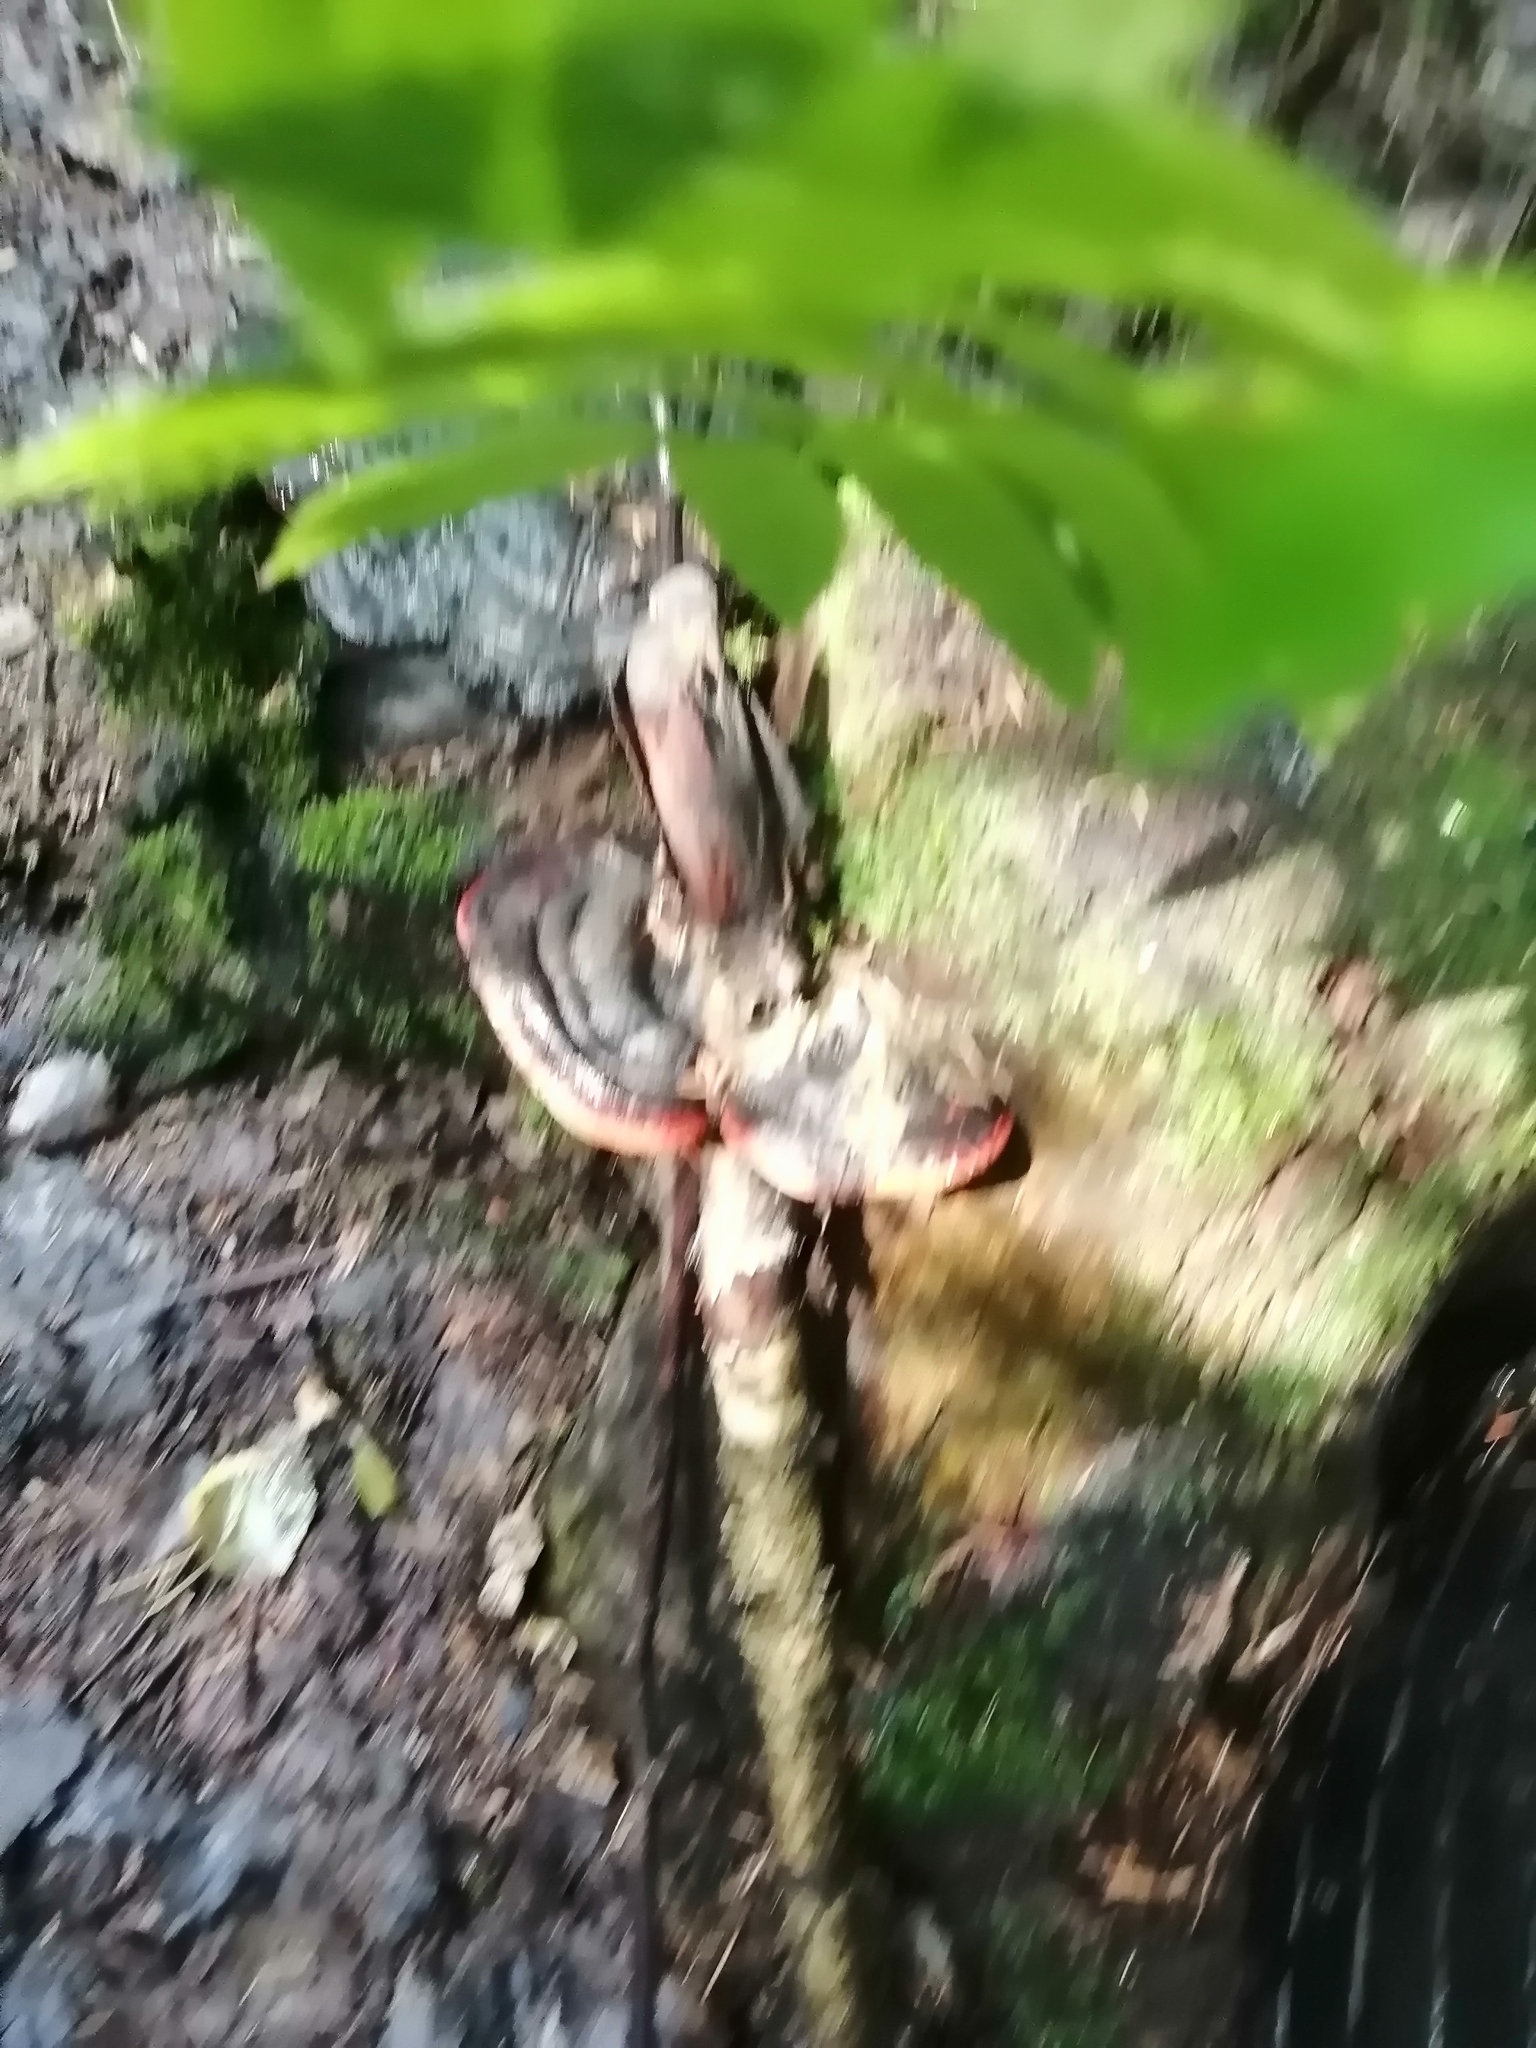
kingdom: Fungi
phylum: Basidiomycota
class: Agaricomycetes
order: Polyporales
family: Fomitopsidaceae
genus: Fomitopsis
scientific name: Fomitopsis pinicola
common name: Red-belted bracket
